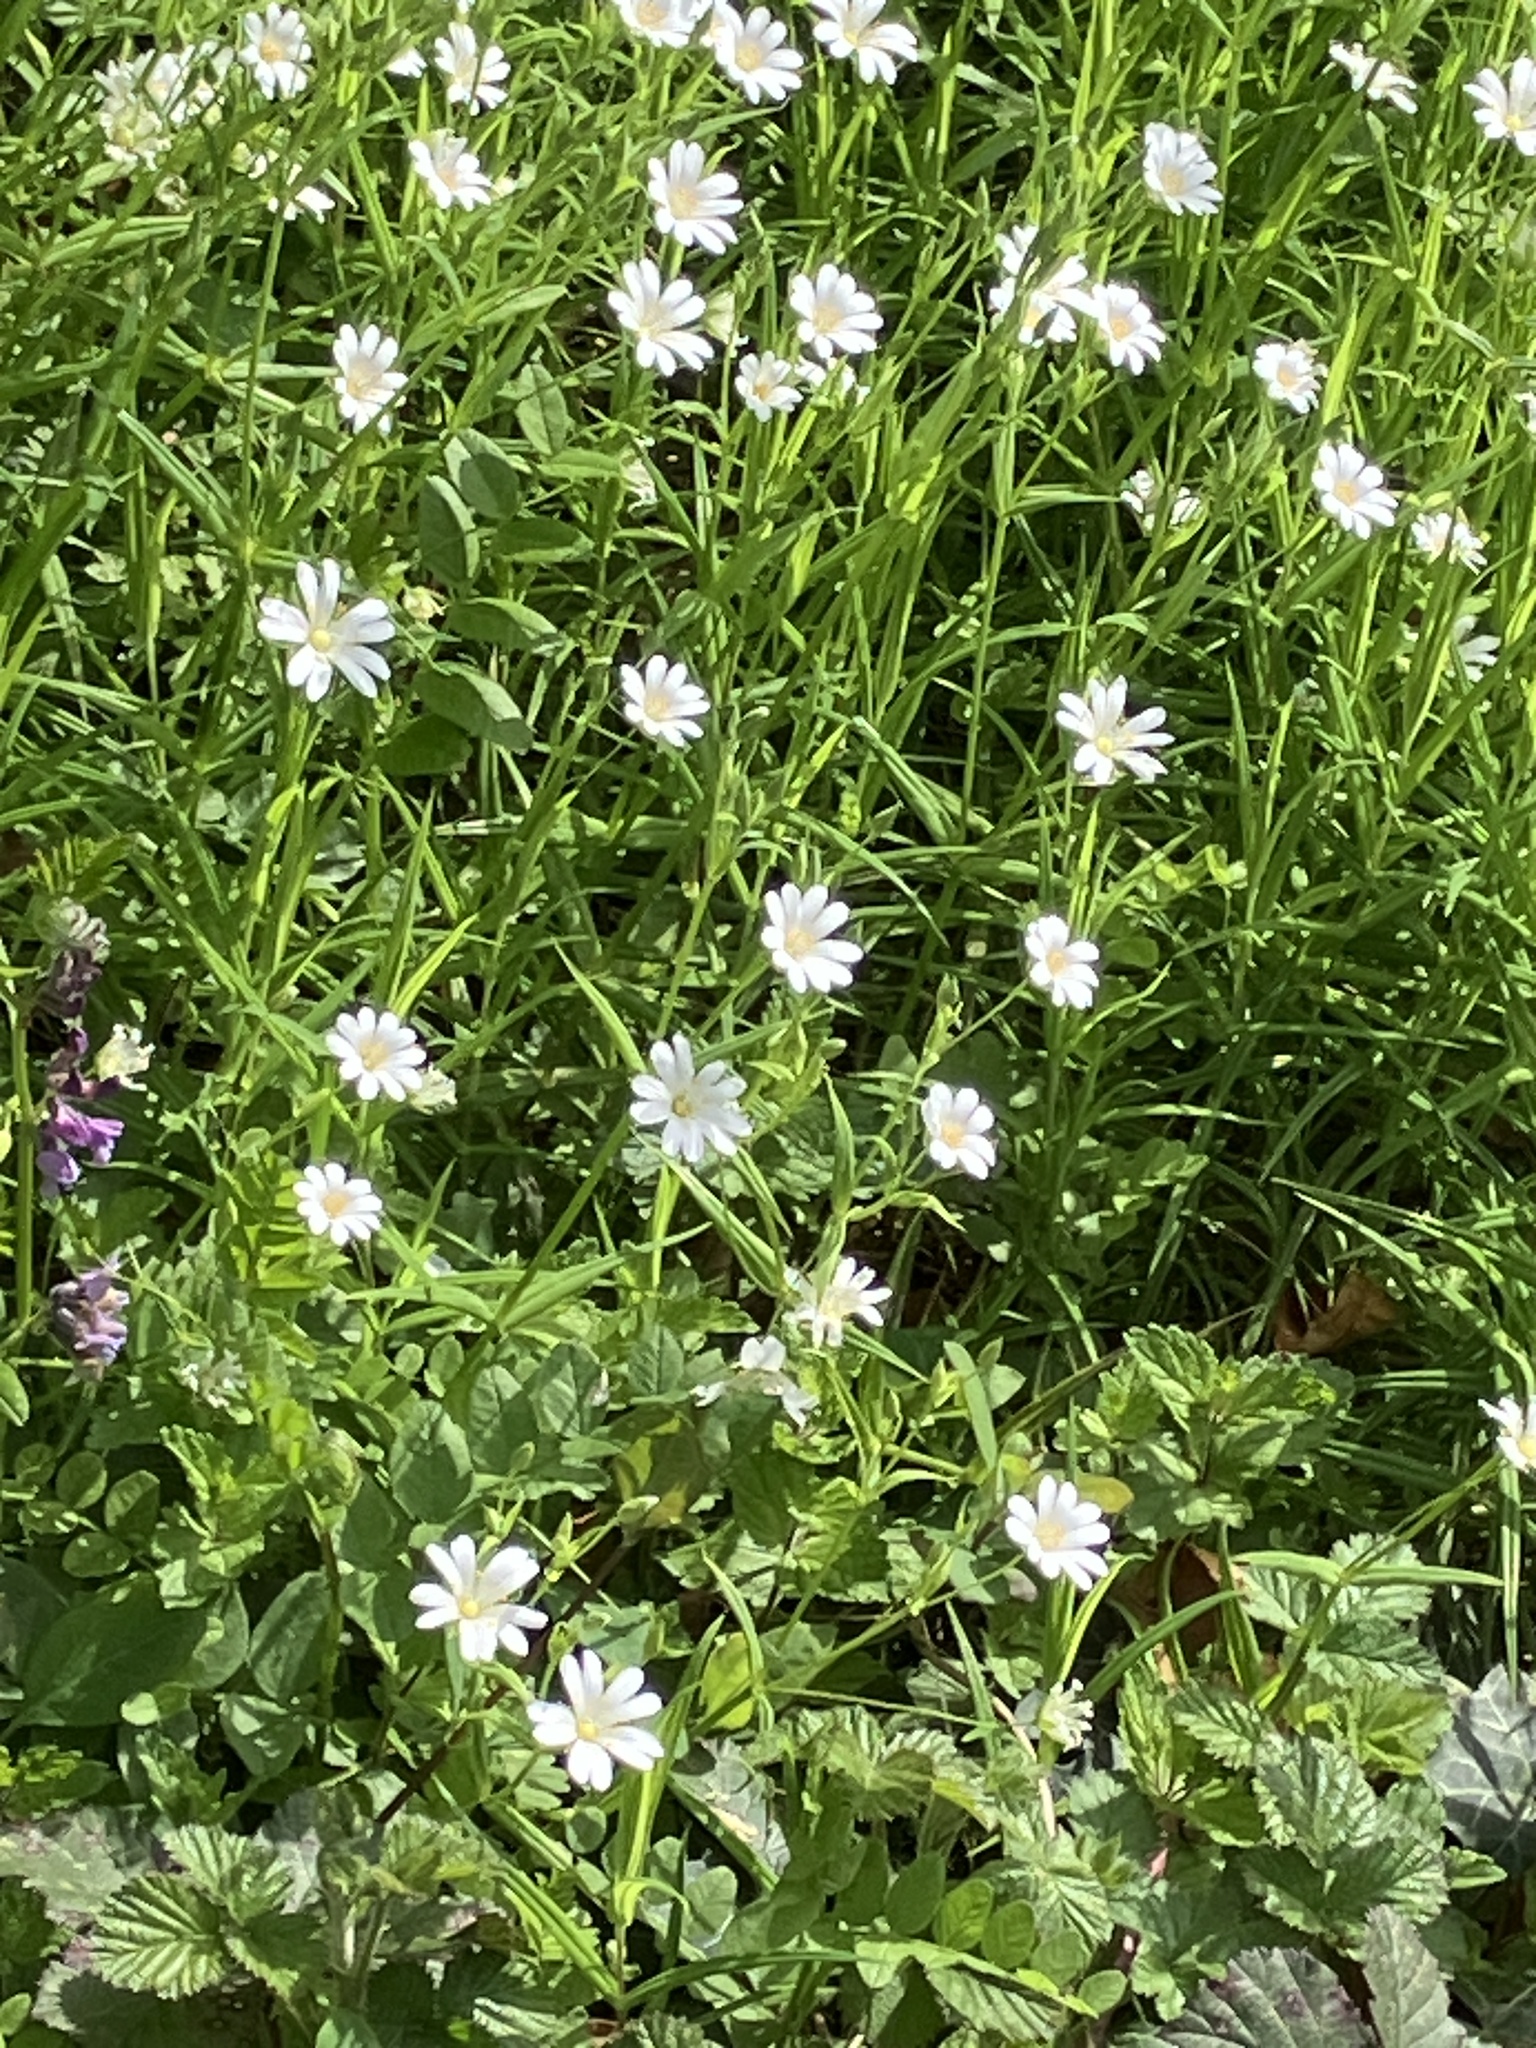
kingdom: Plantae
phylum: Tracheophyta
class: Magnoliopsida
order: Caryophyllales
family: Caryophyllaceae
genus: Rabelera
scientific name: Rabelera holostea
